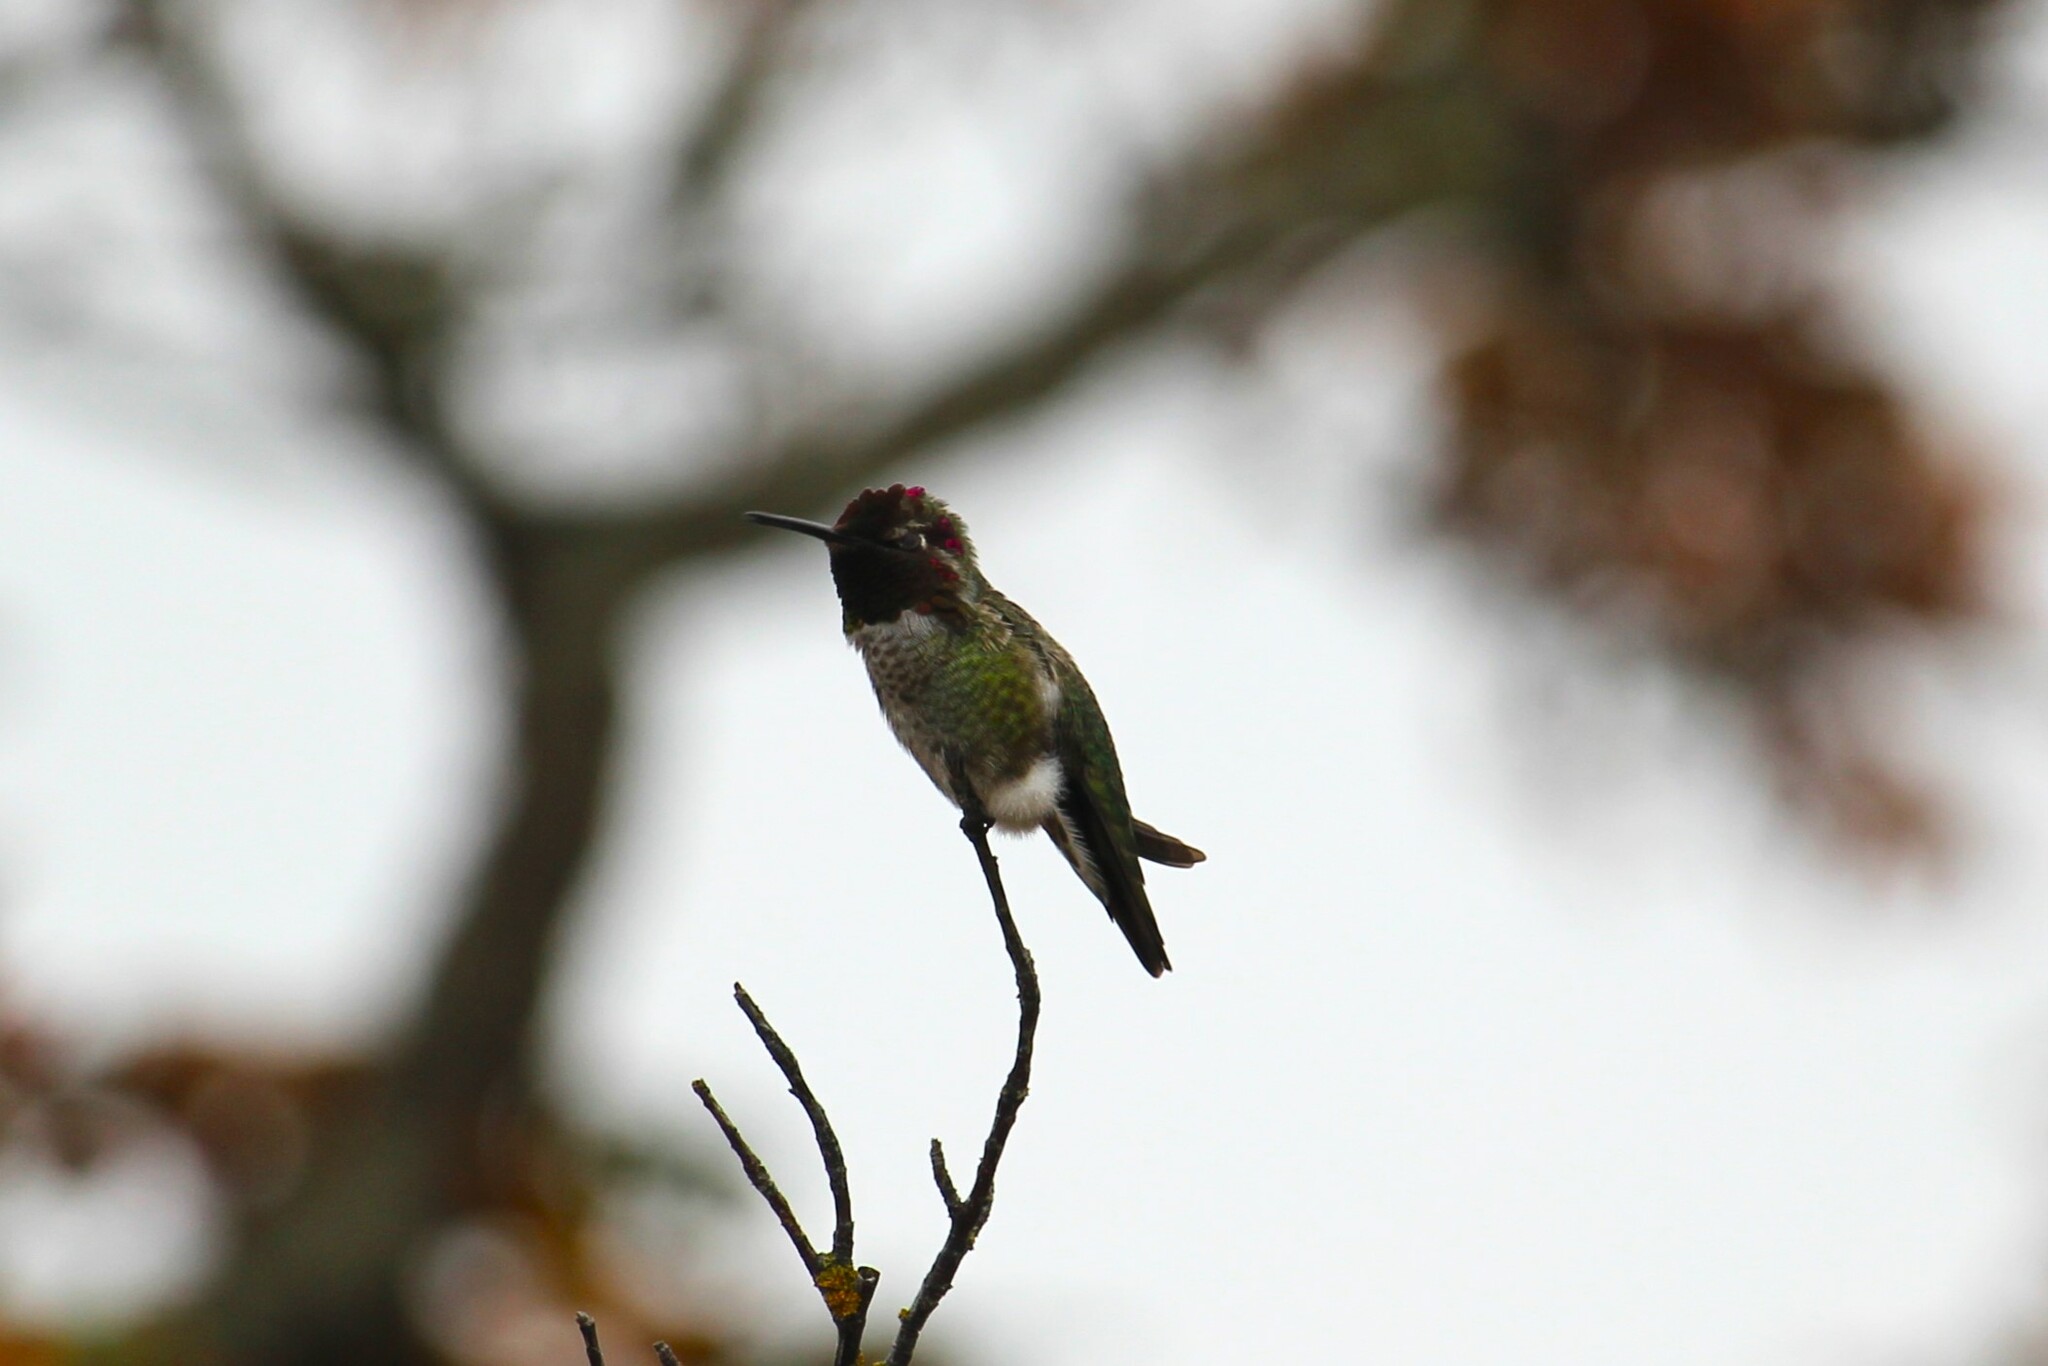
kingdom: Animalia
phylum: Chordata
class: Aves
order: Apodiformes
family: Trochilidae
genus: Calypte
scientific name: Calypte anna
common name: Anna's hummingbird
